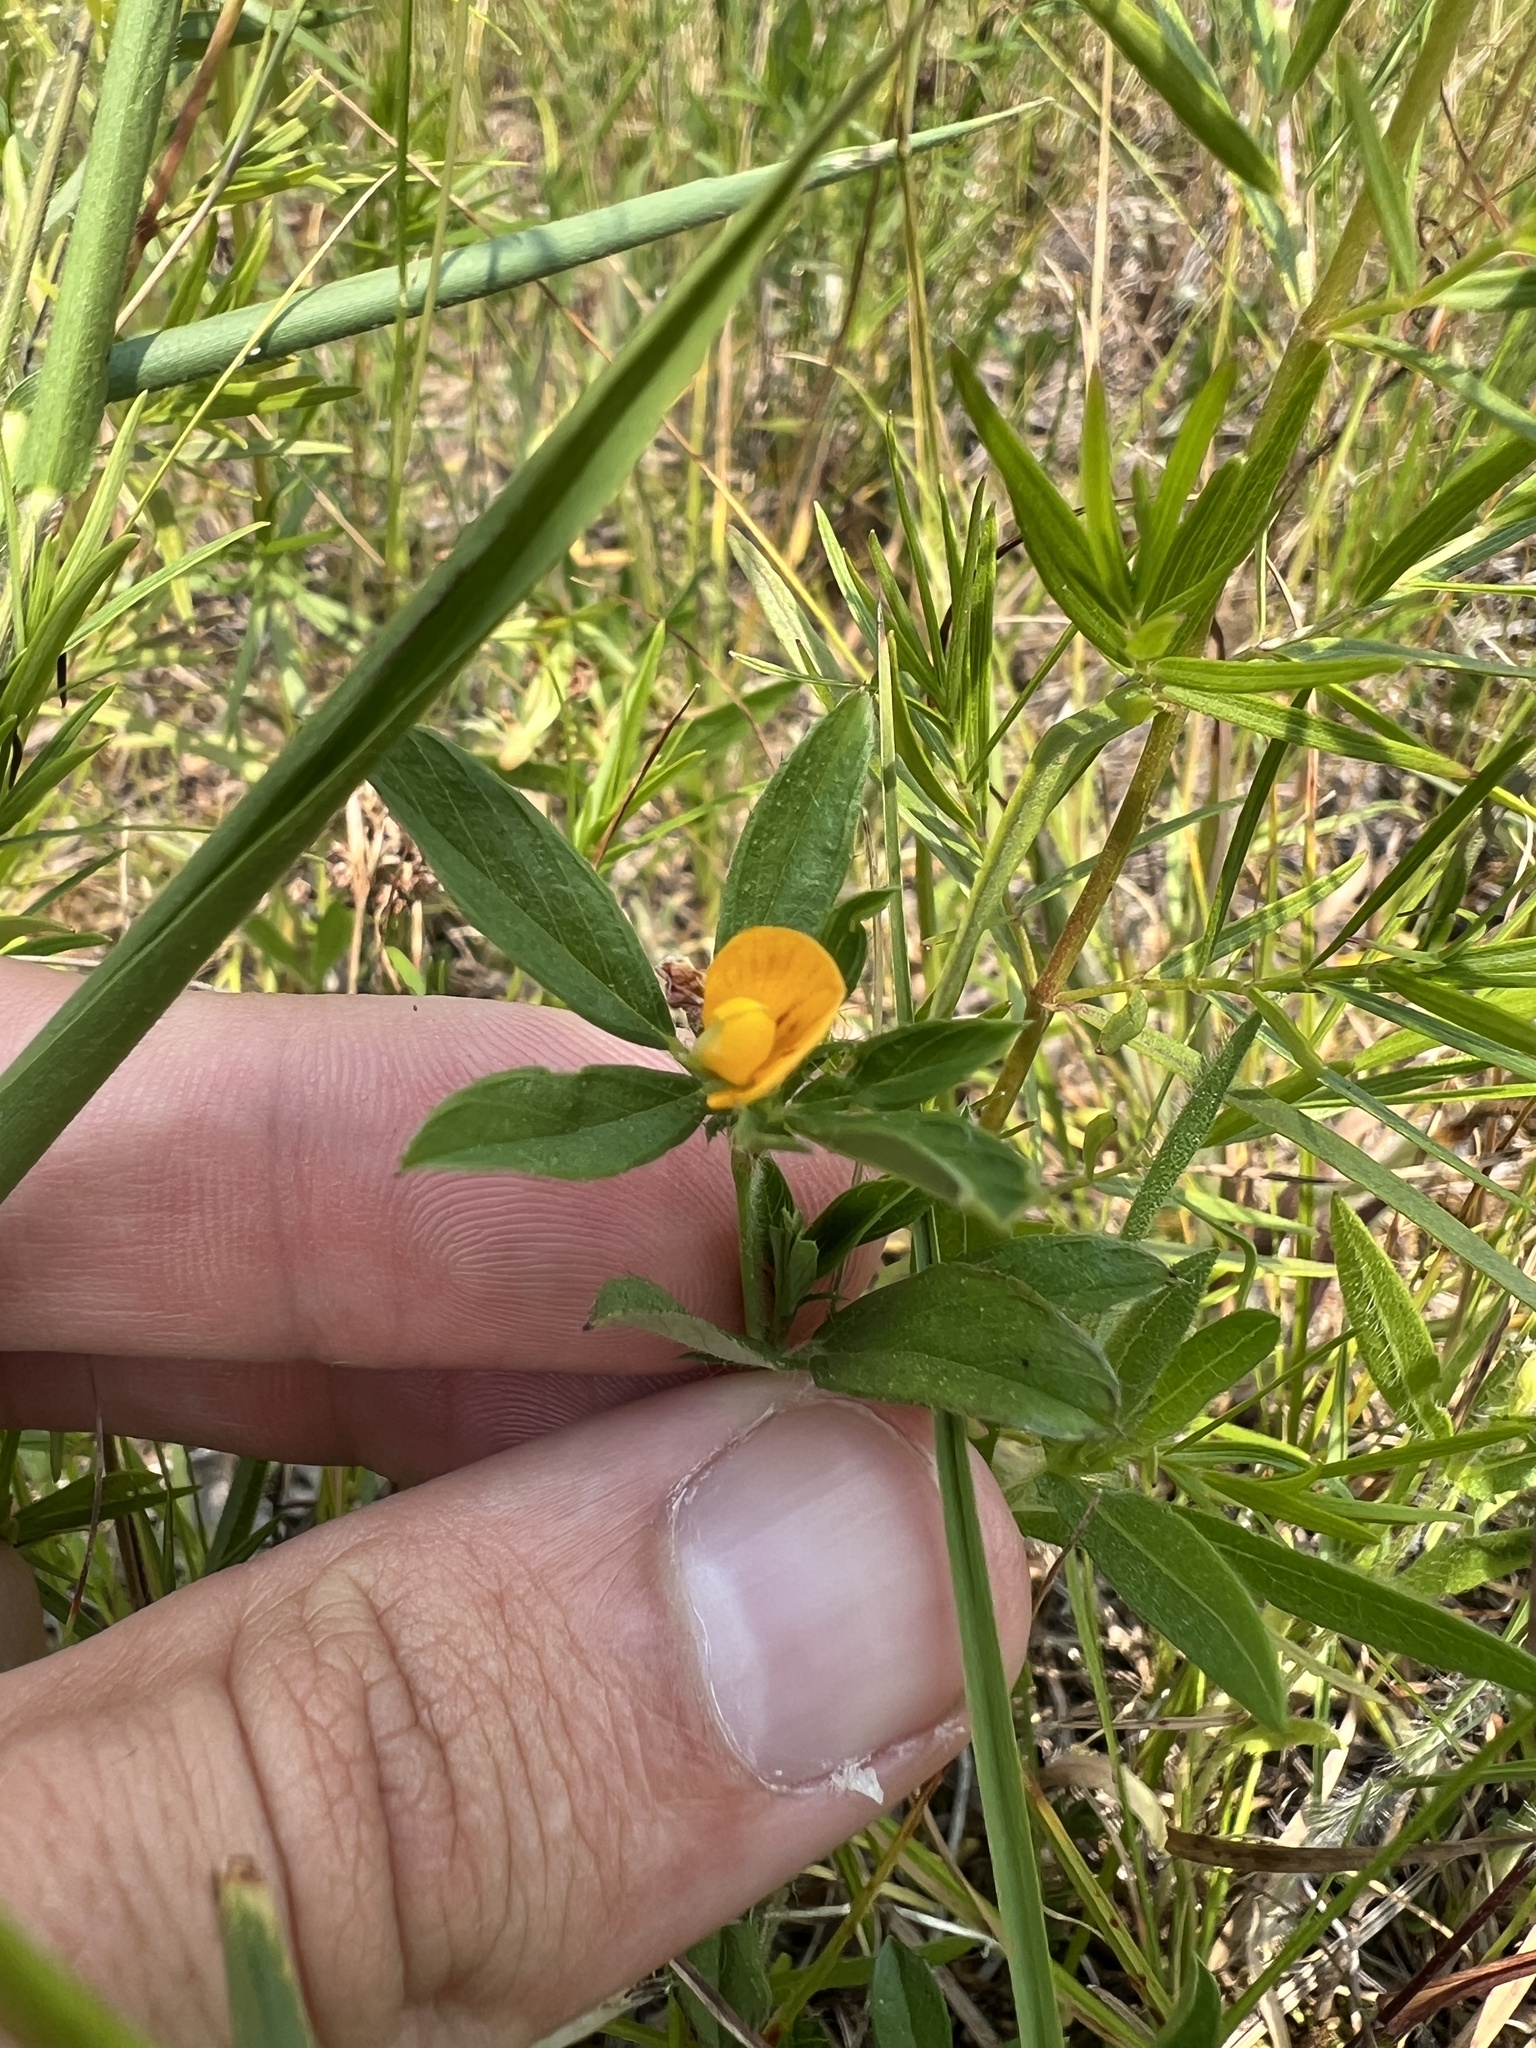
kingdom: Plantae
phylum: Tracheophyta
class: Magnoliopsida
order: Fabales
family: Fabaceae
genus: Stylosanthes
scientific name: Stylosanthes biflora
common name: Two-flower pencil-flower
